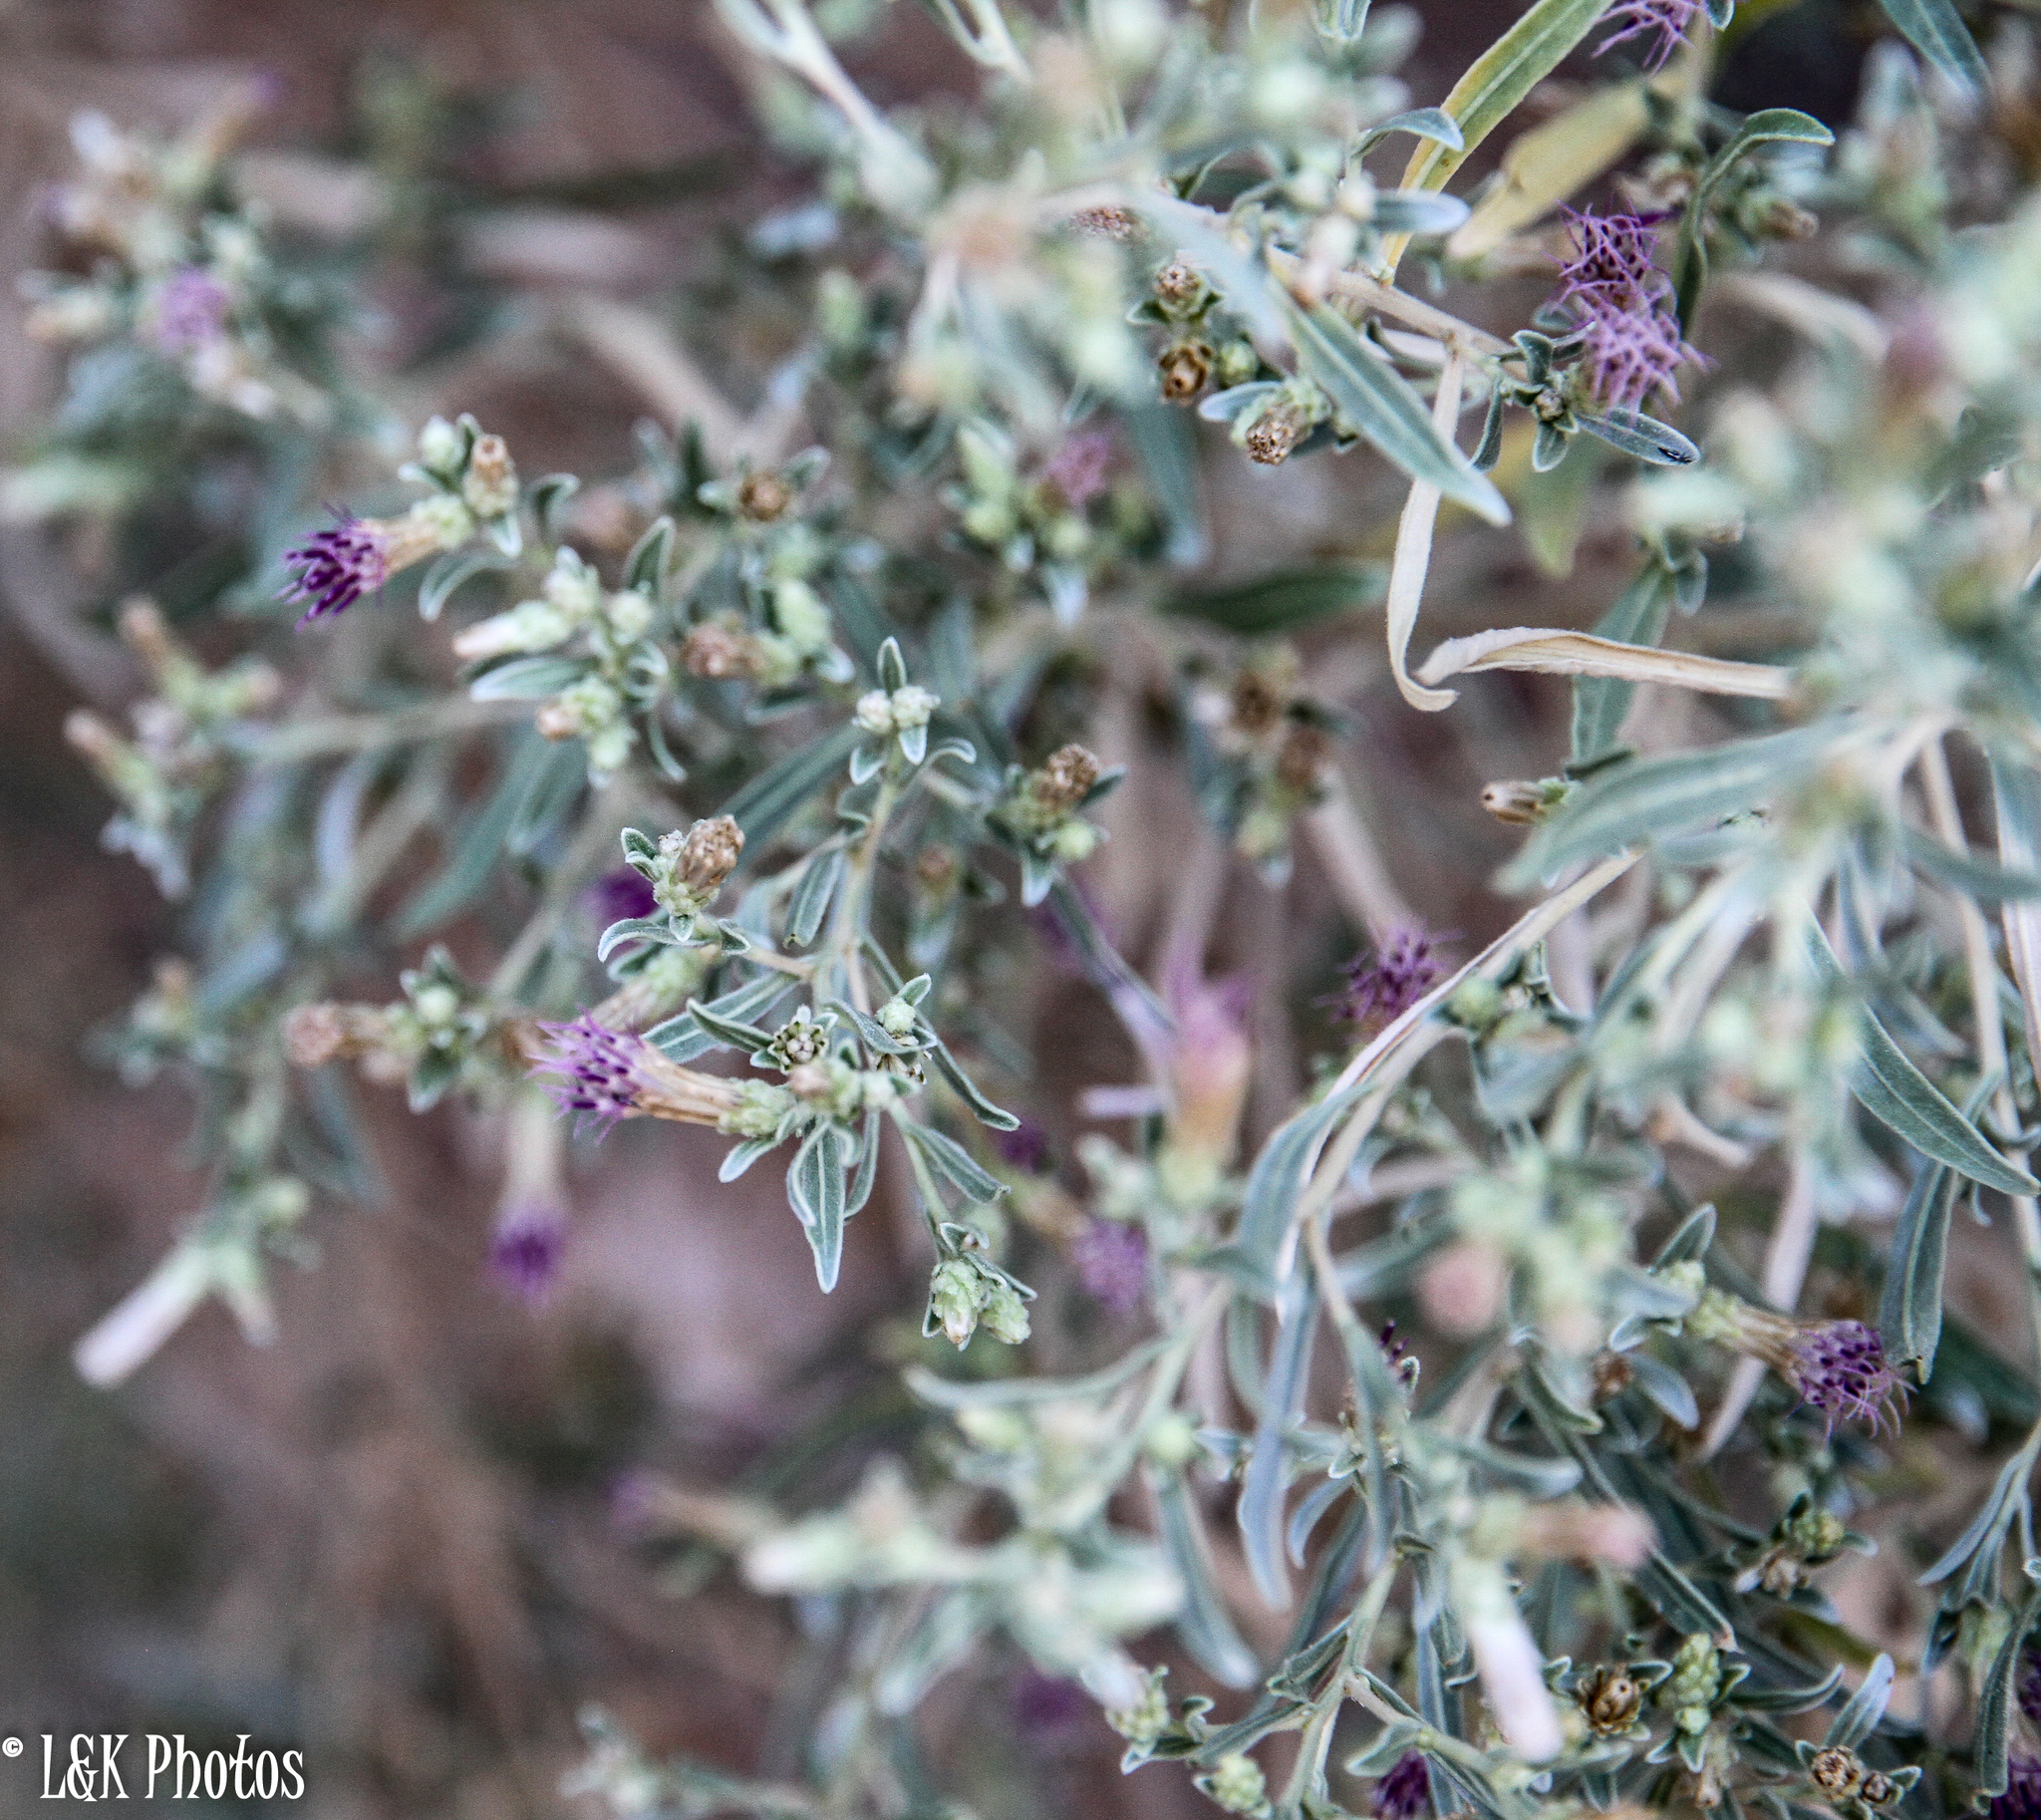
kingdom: Plantae
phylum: Tracheophyta
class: Magnoliopsida
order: Asterales
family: Asteraceae
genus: Pechuel-loeschea
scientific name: Pechuel-loeschea leubnitziae
